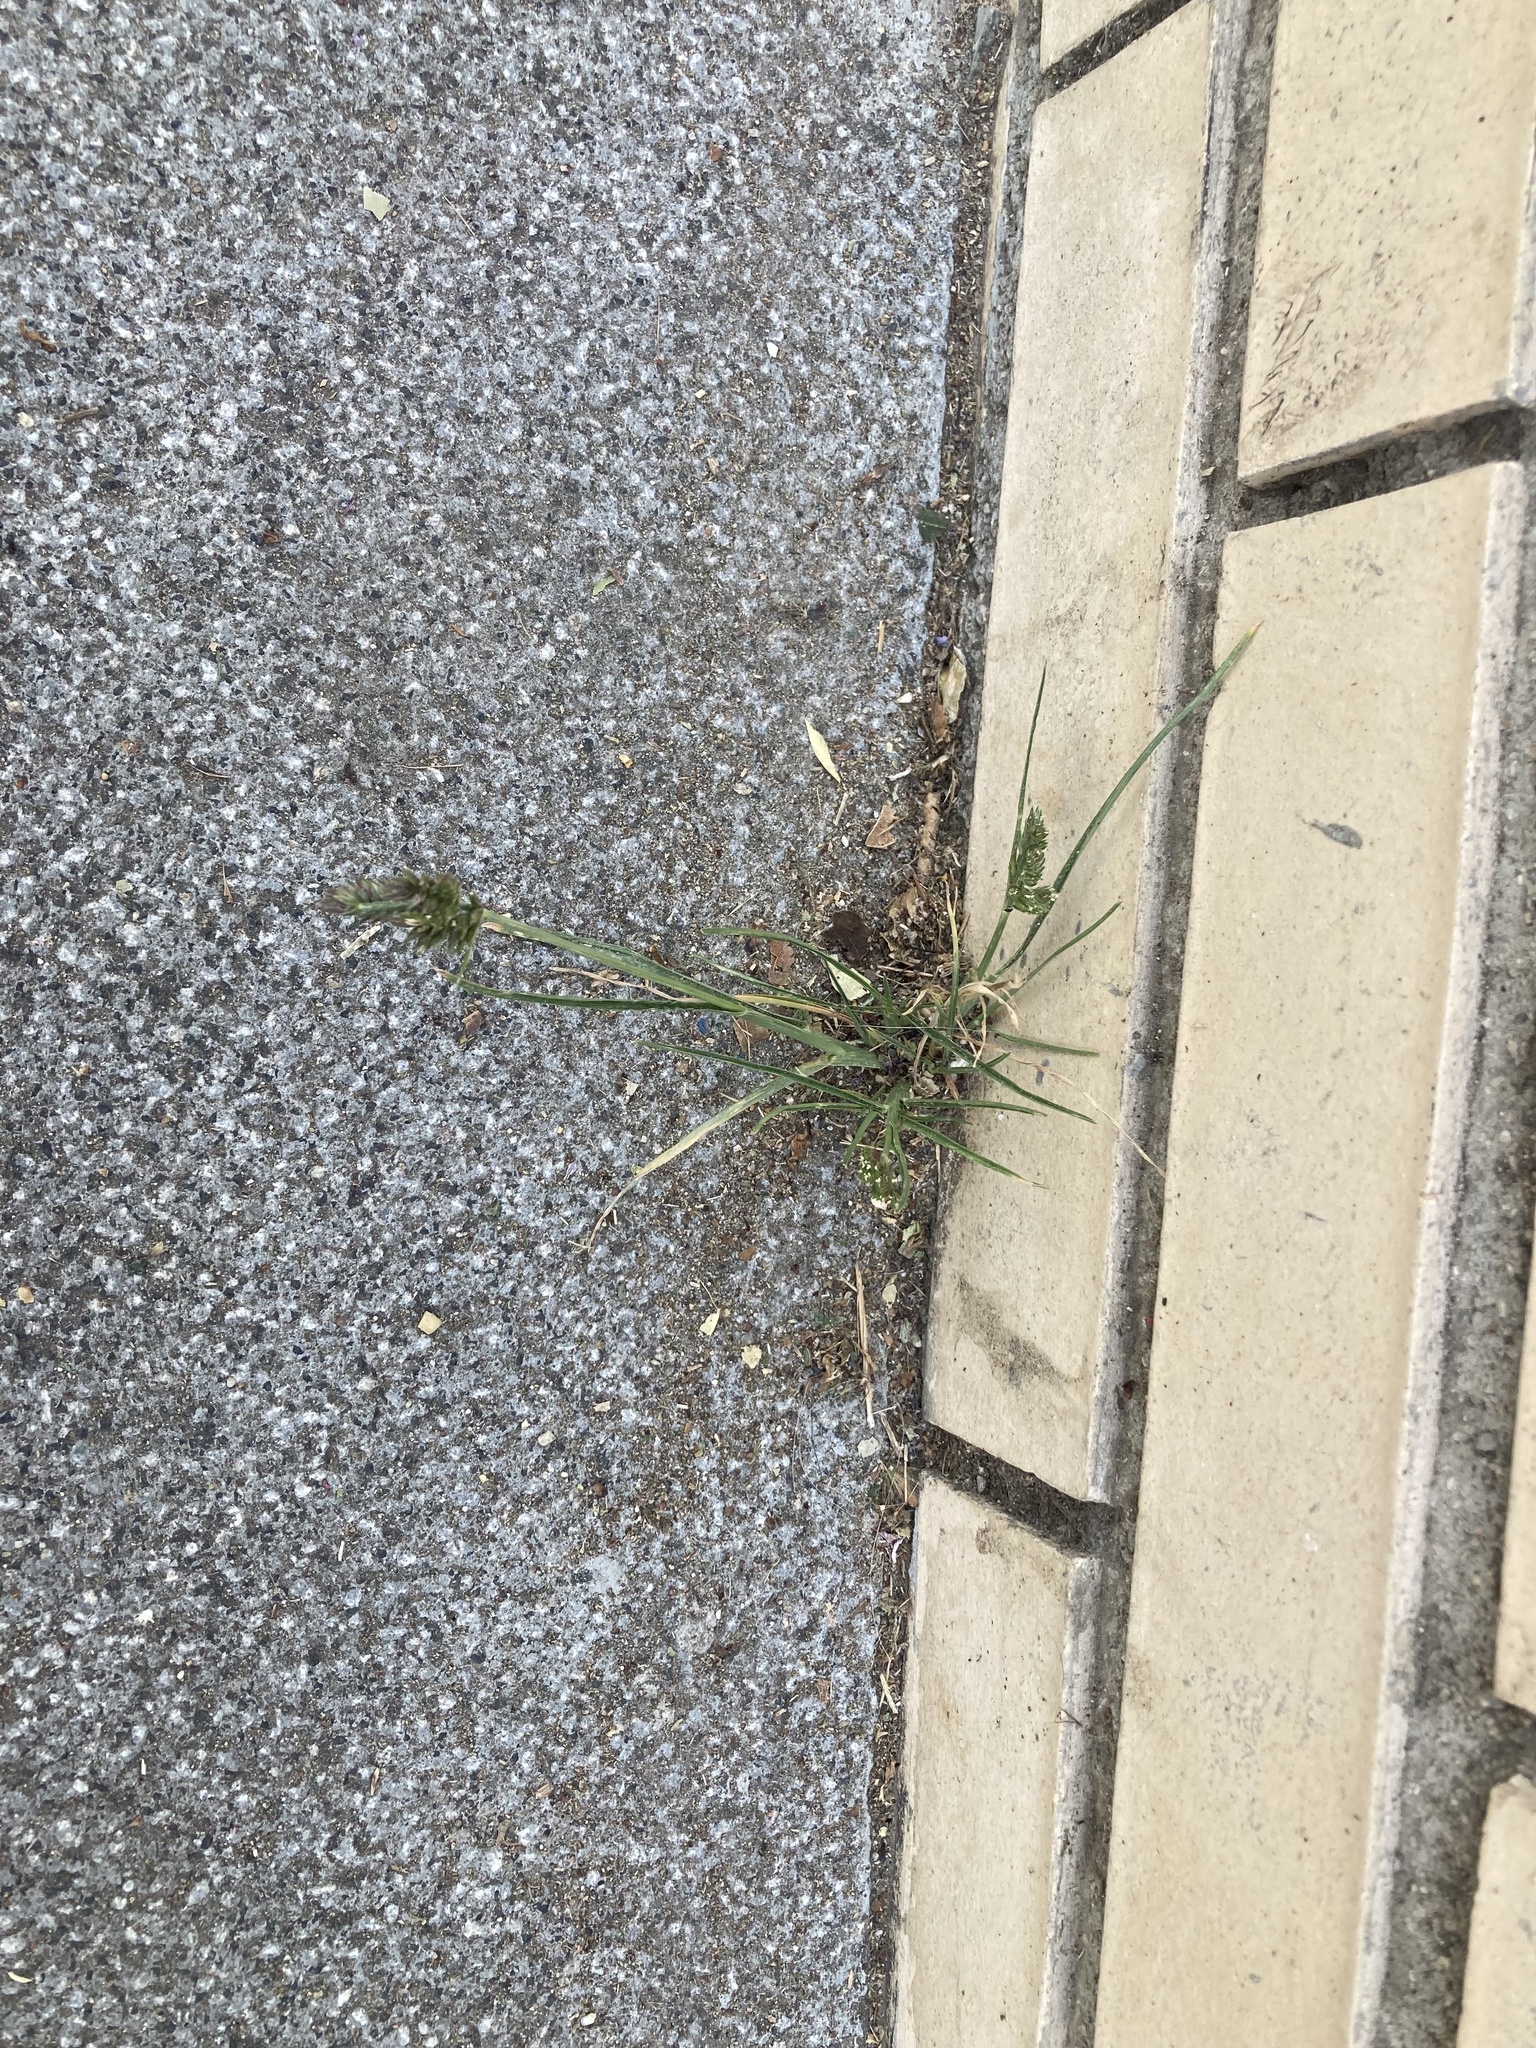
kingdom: Plantae
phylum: Tracheophyta
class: Liliopsida
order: Poales
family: Poaceae
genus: Eleusine
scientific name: Eleusine tristachya
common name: American yard-grass
